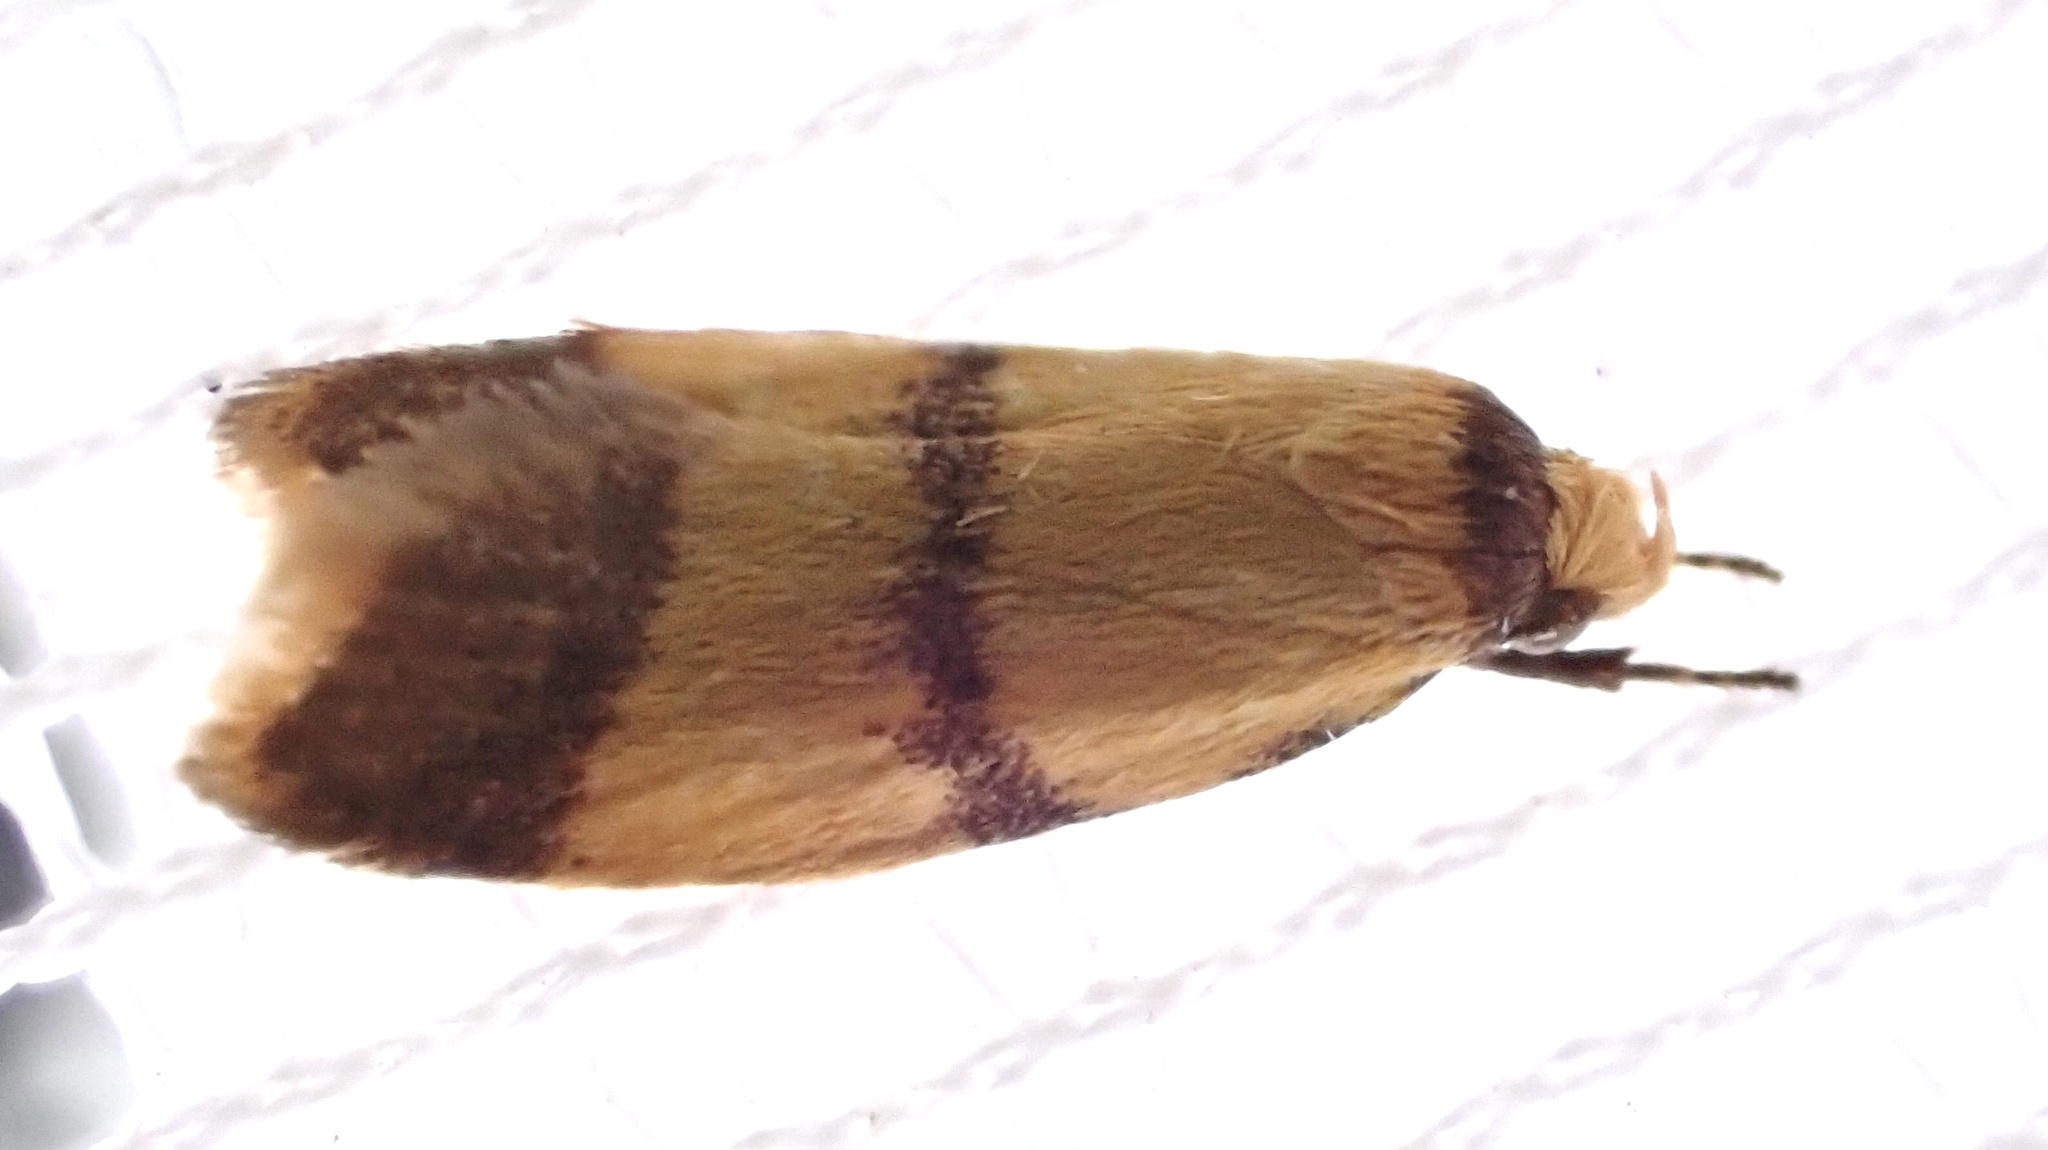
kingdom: Animalia
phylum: Arthropoda
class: Insecta
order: Lepidoptera
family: Oecophoridae
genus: Heteroteucha
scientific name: Heteroteucha translatella
